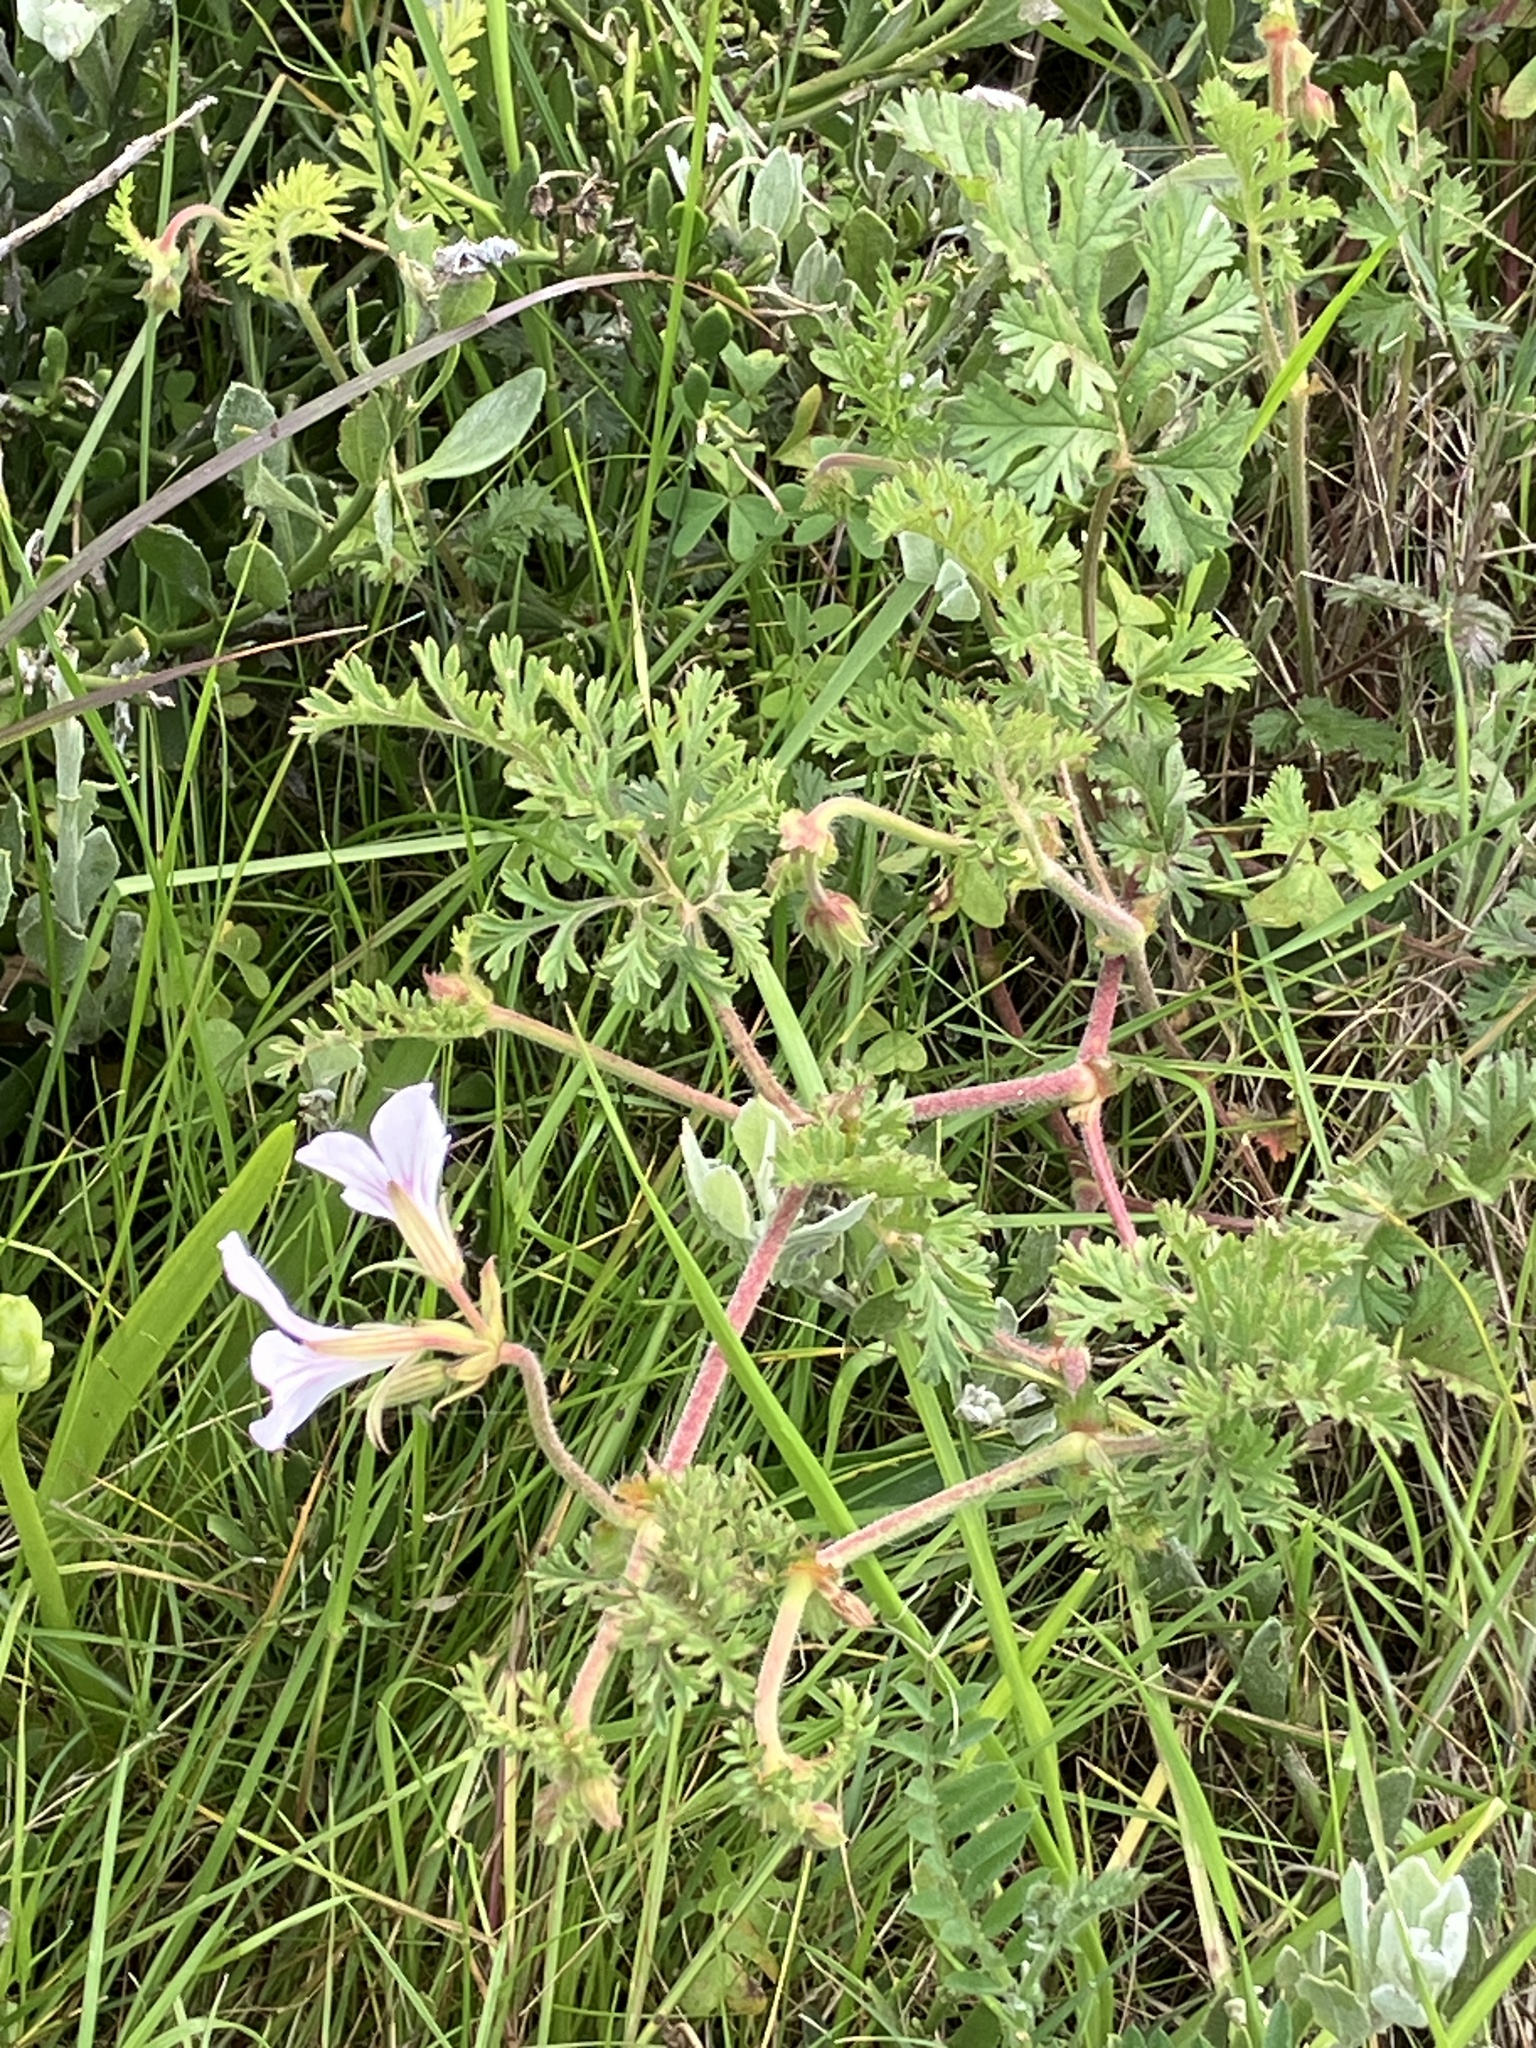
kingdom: Plantae
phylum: Tracheophyta
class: Magnoliopsida
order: Geraniales
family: Geraniaceae
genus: Pelargonium
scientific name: Pelargonium myrrhifolium
